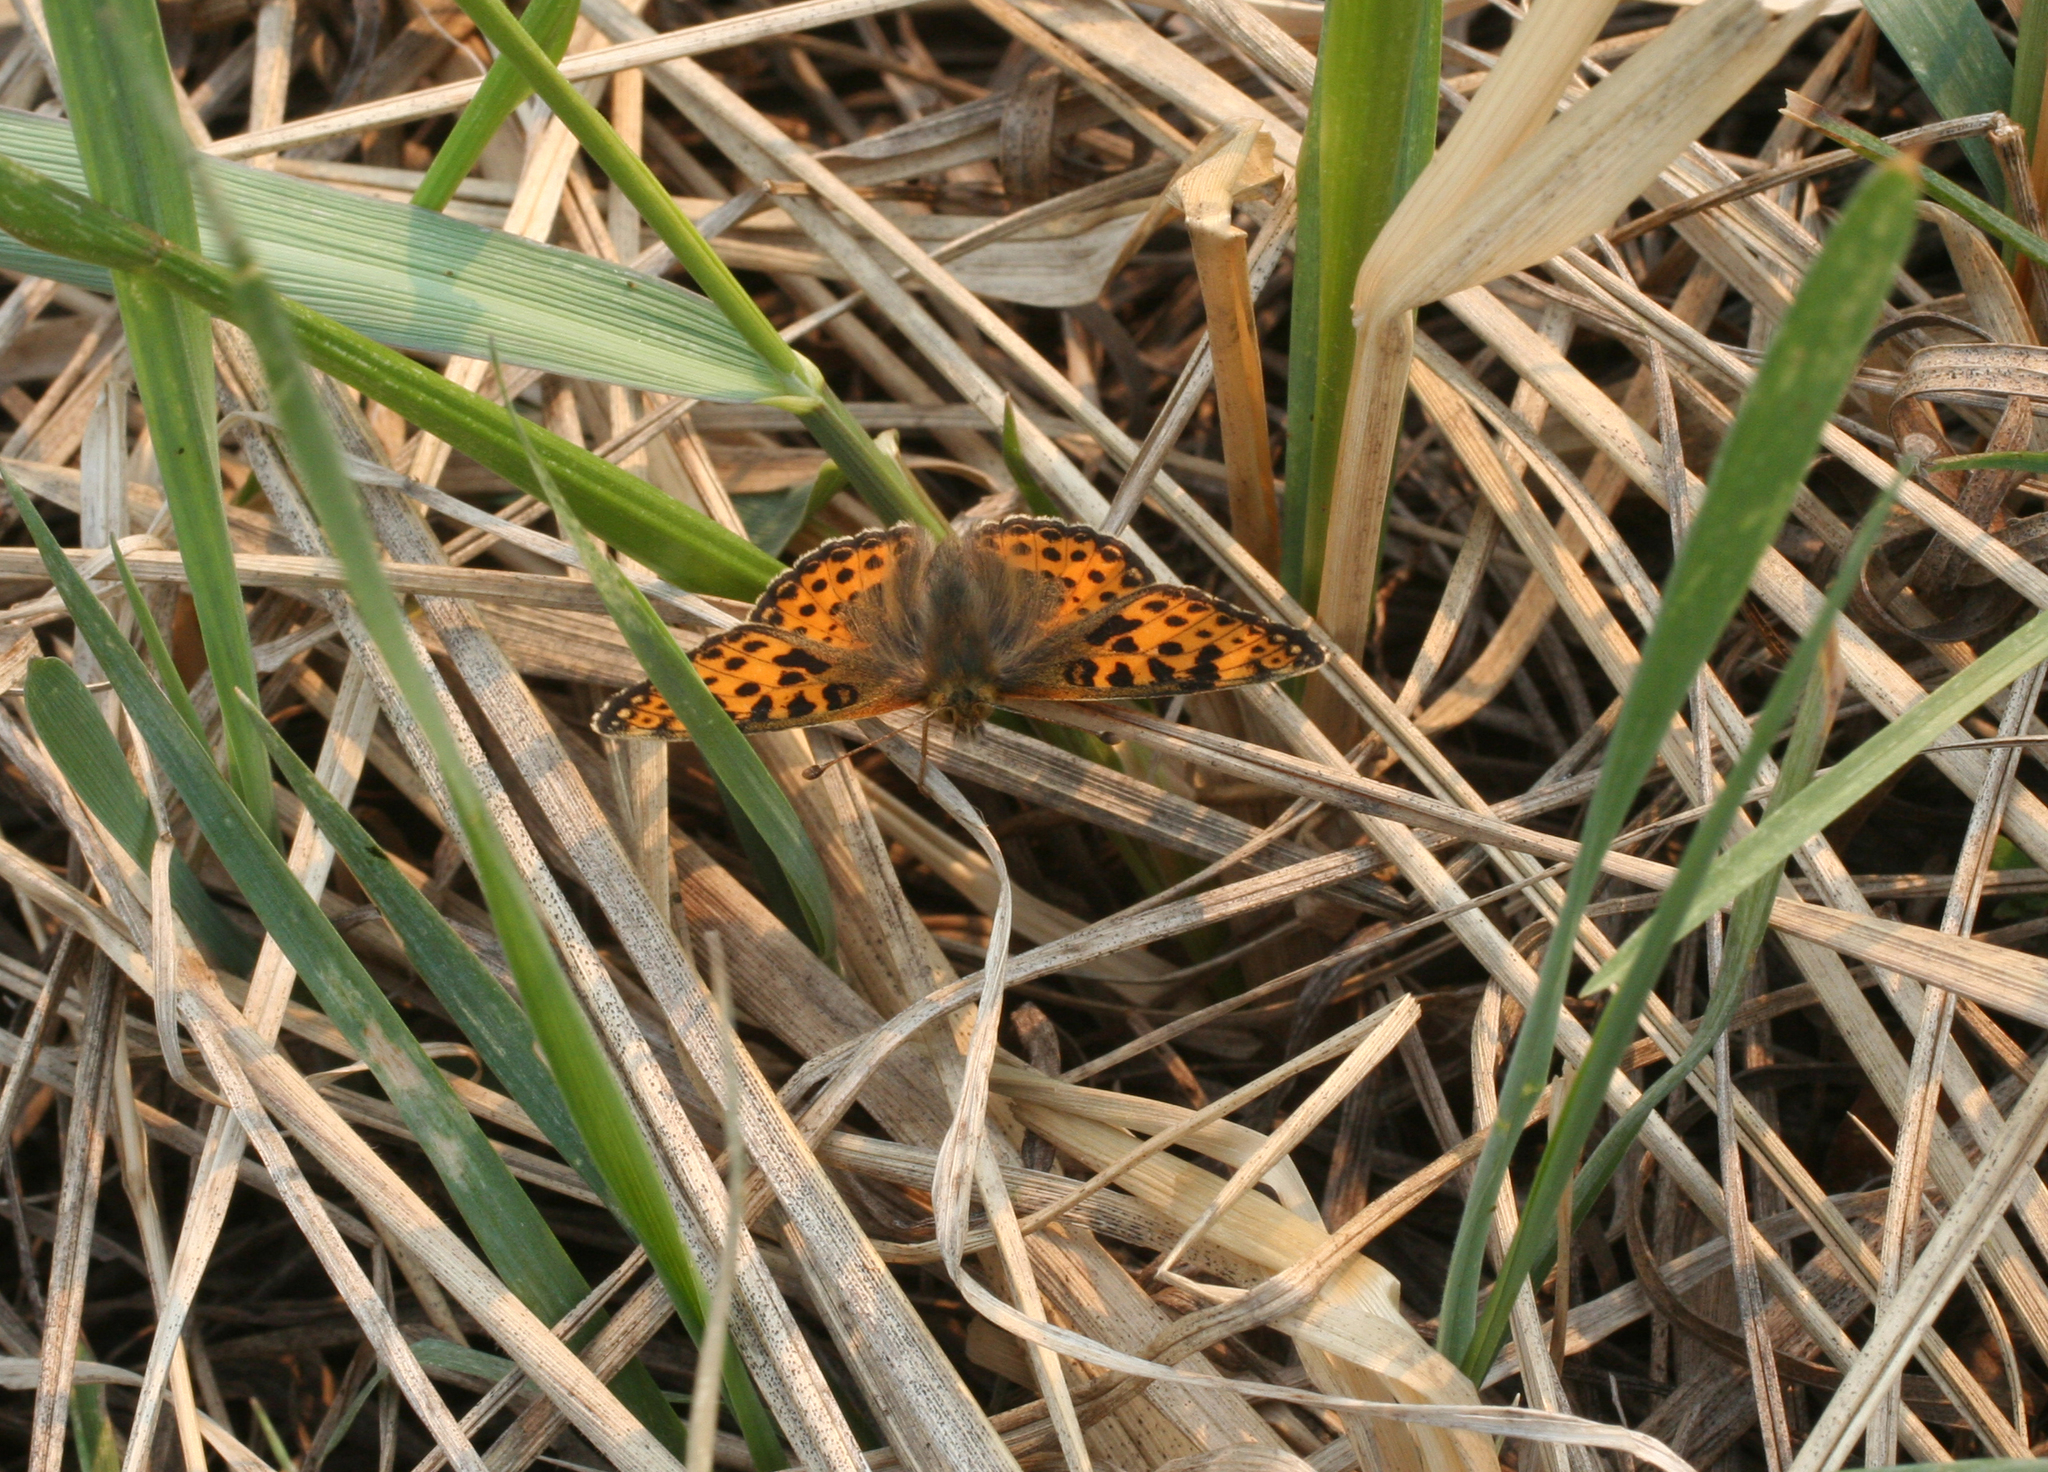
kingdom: Animalia
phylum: Arthropoda
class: Insecta
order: Lepidoptera
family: Nymphalidae
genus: Issoria
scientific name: Issoria lathonia
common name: Queen of spain fritillary
